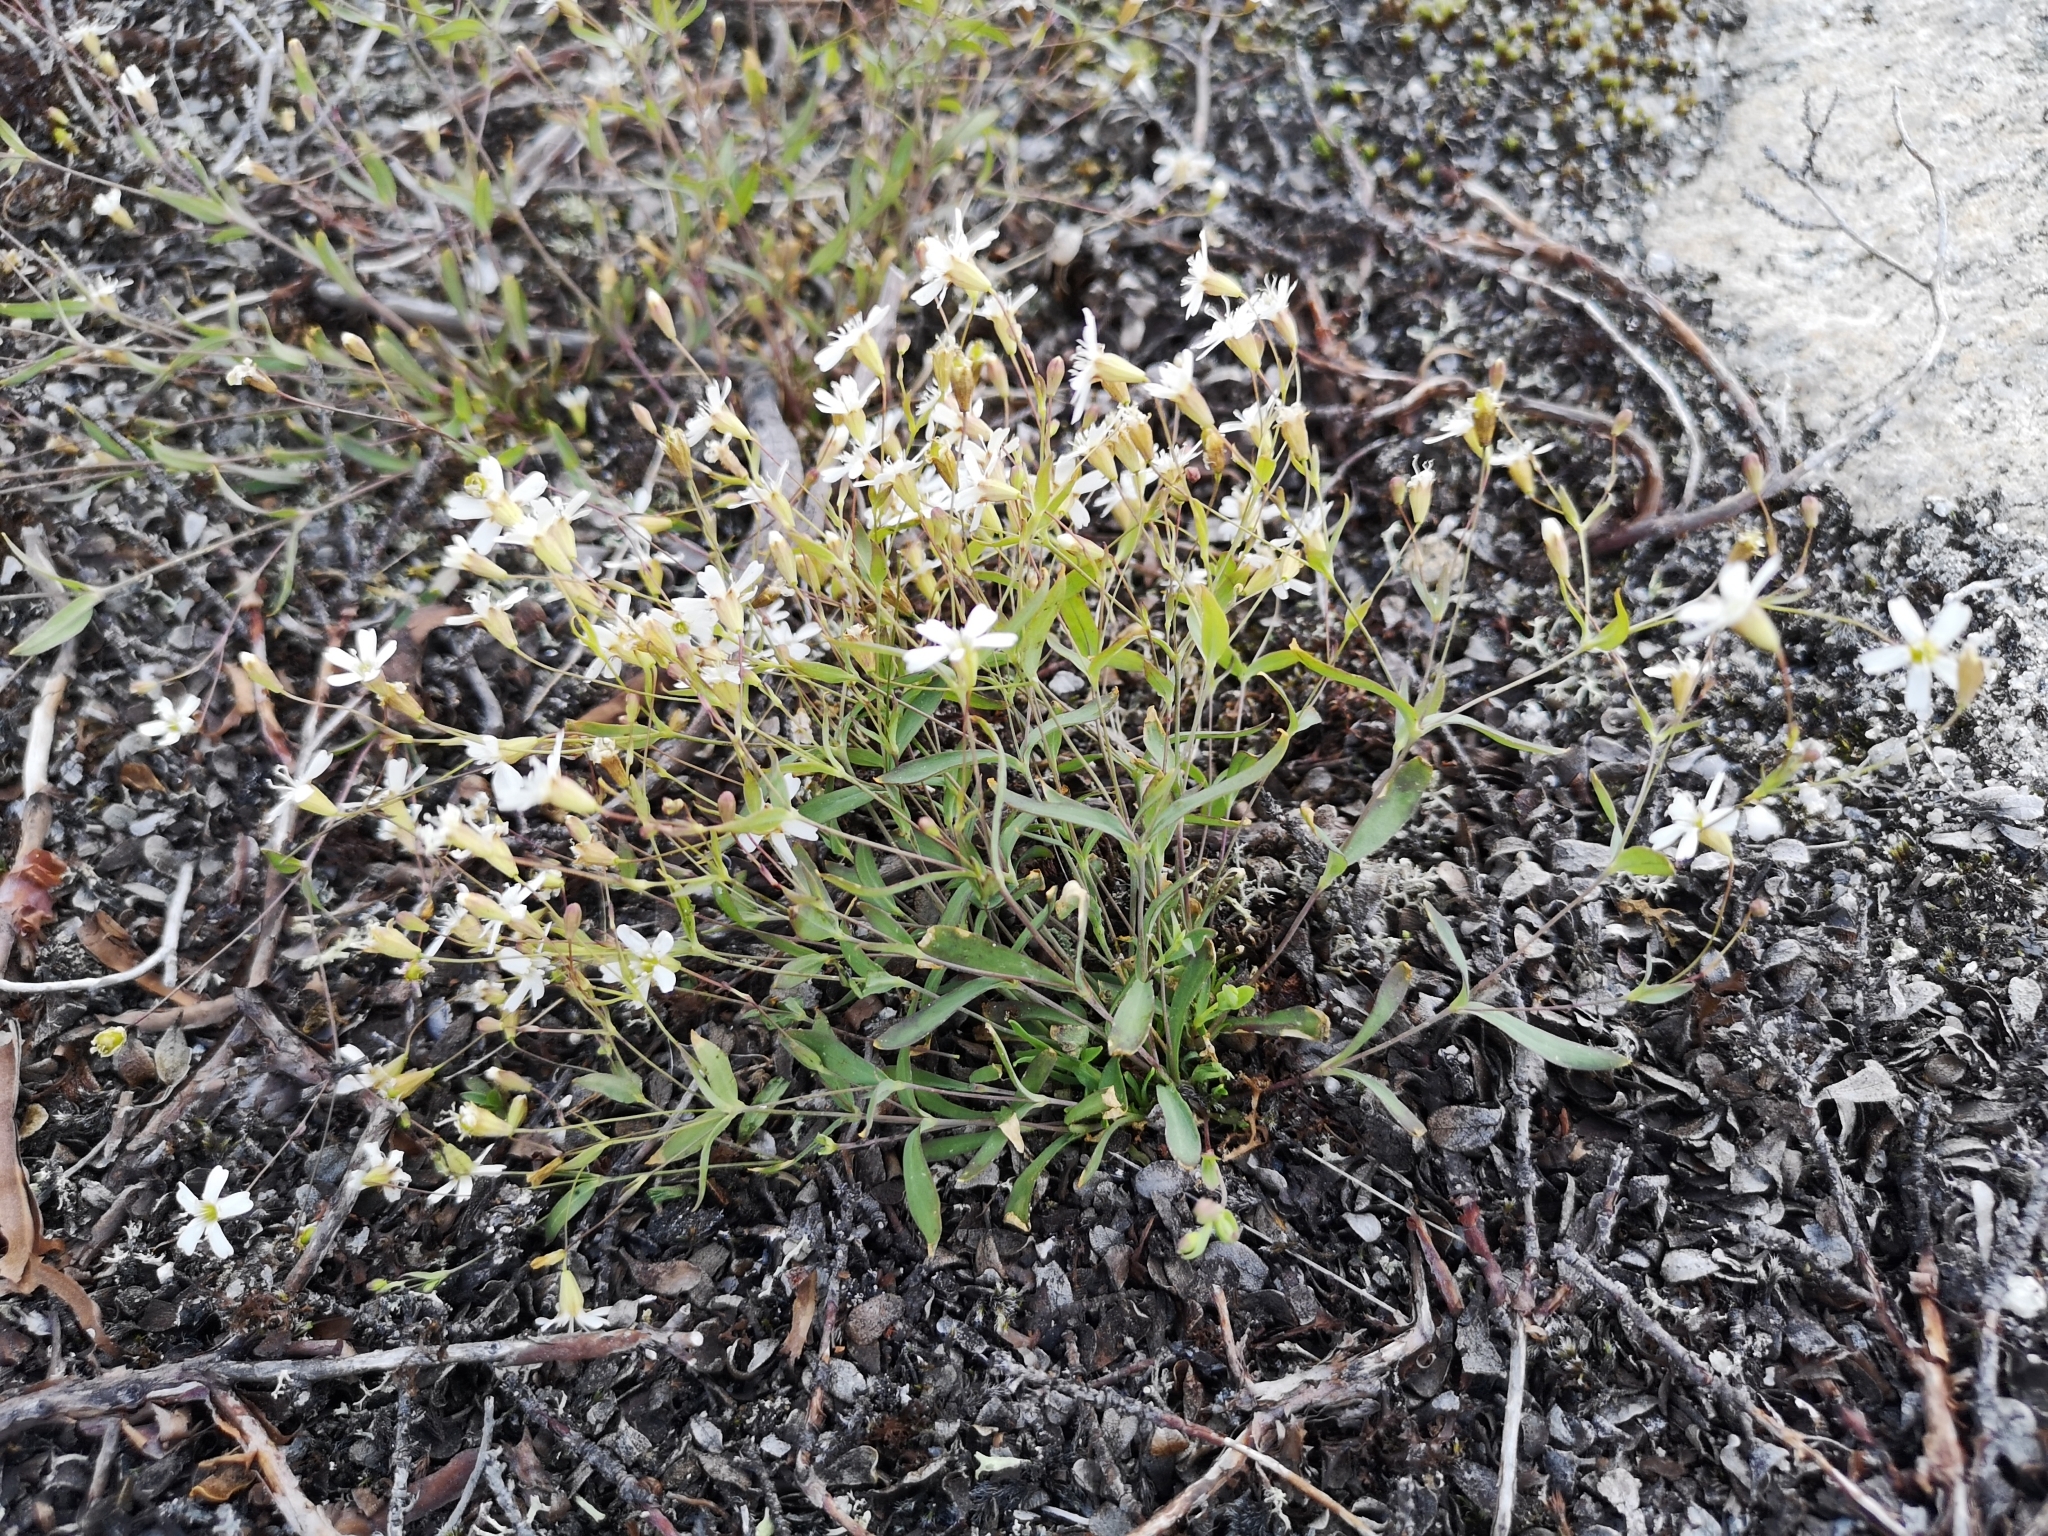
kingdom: Plantae
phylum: Tracheophyta
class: Magnoliopsida
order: Caryophyllales
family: Caryophyllaceae
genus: Atocion
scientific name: Atocion rupestre
